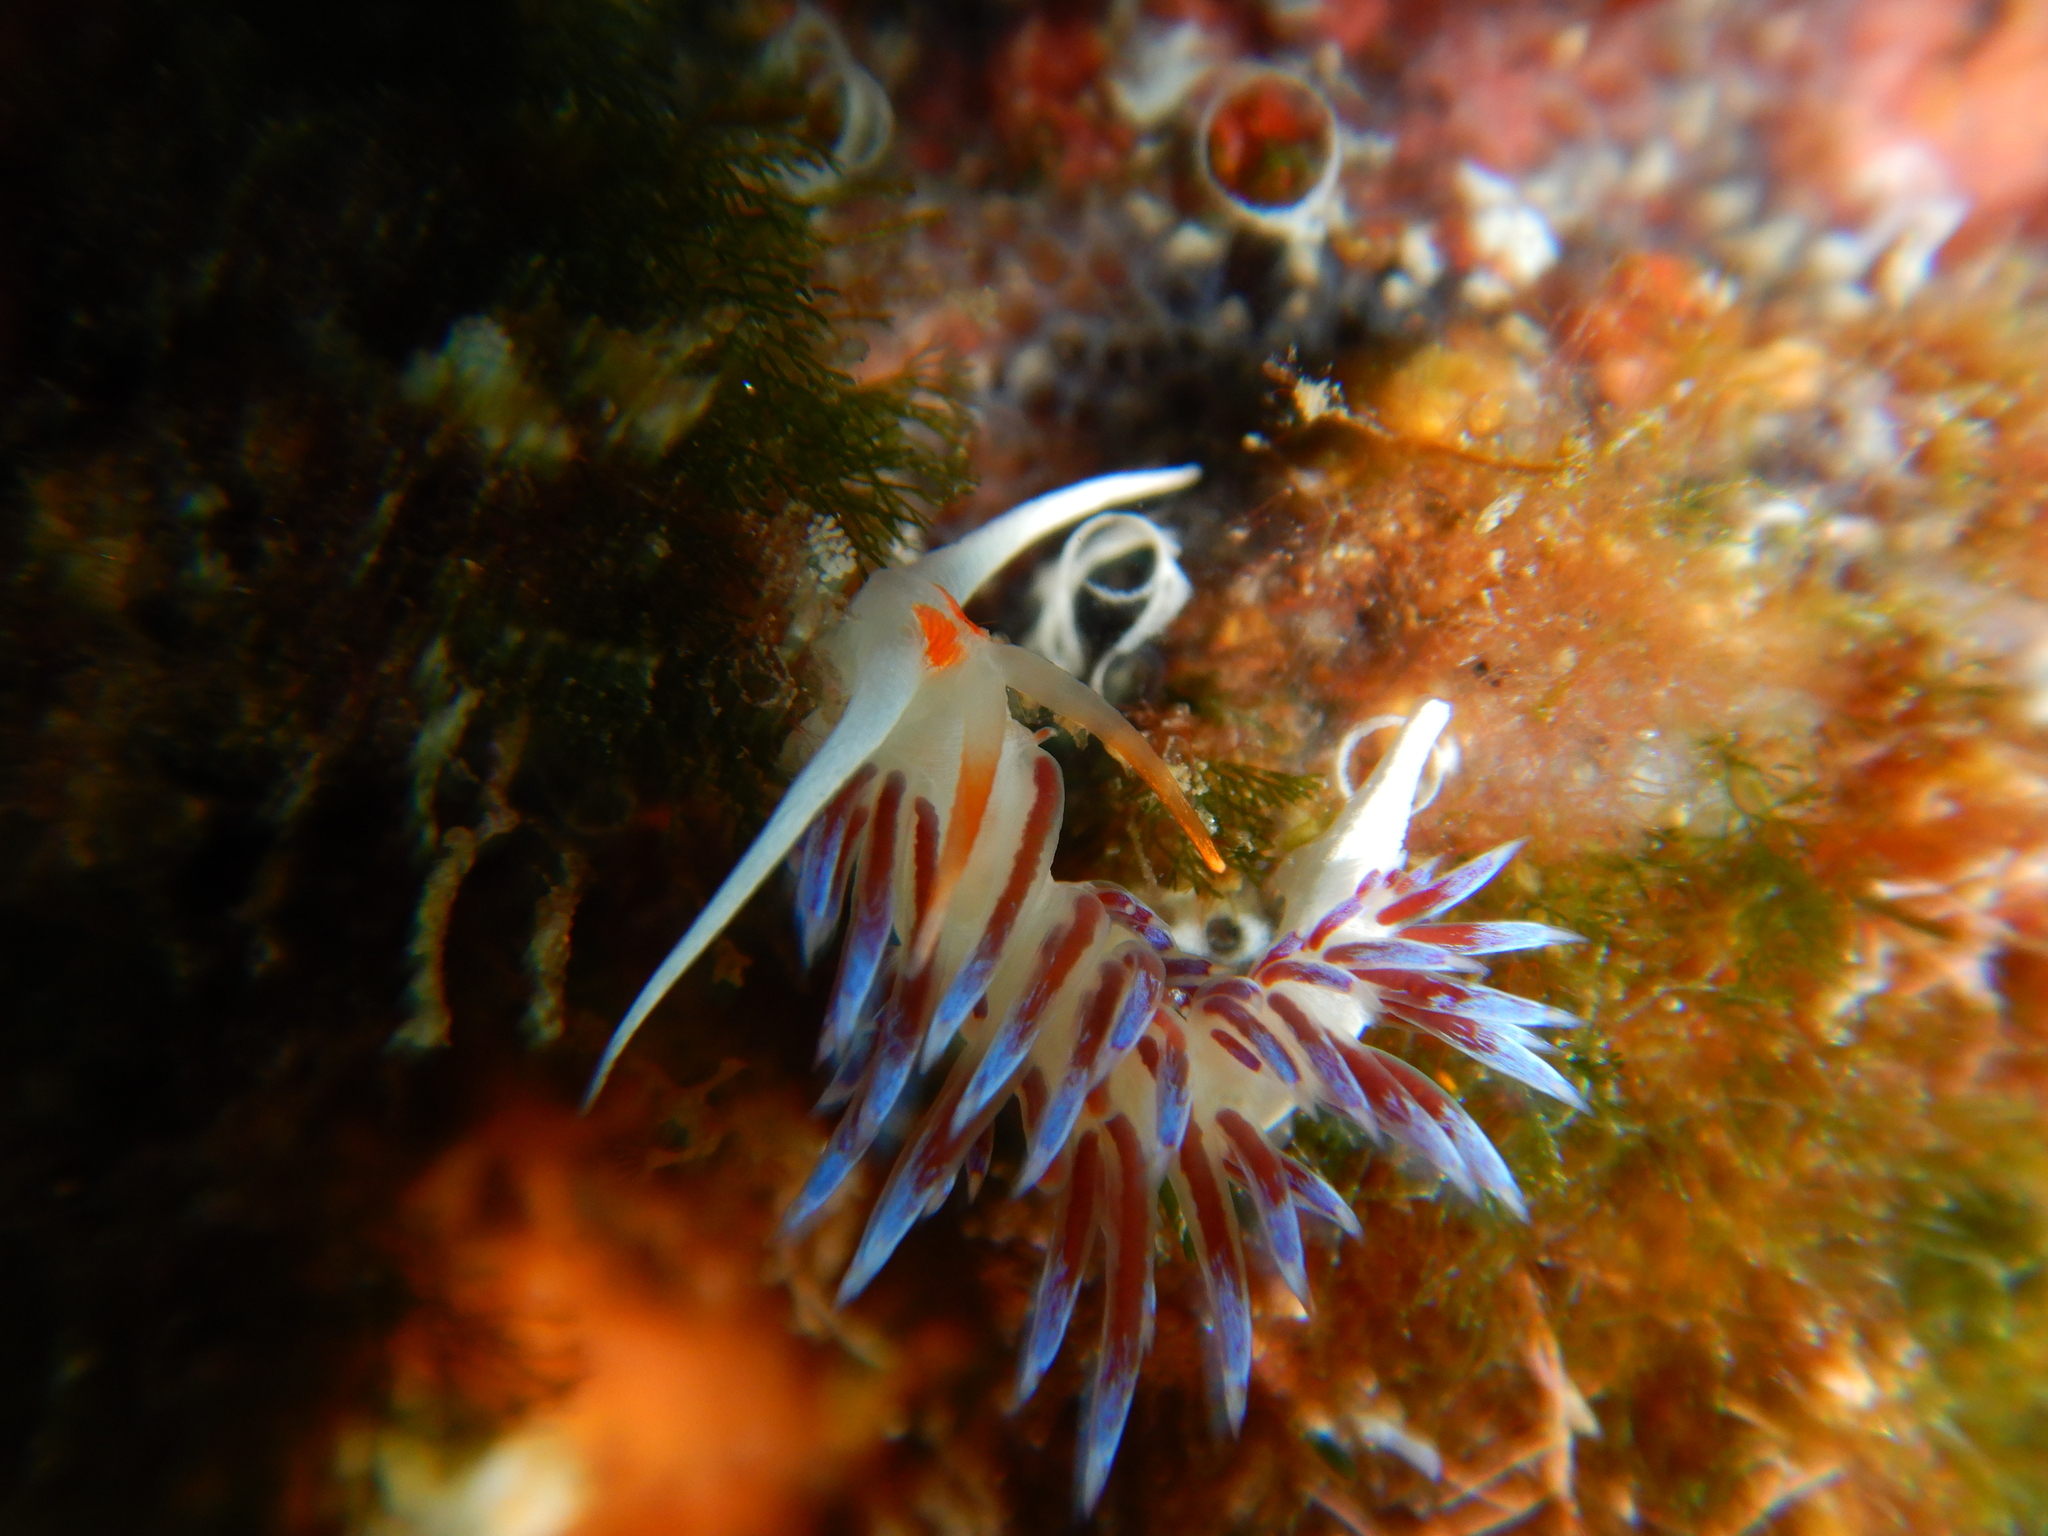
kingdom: Animalia
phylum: Mollusca
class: Gastropoda
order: Nudibranchia
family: Facelinidae
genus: Cratena
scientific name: Cratena peregrina
